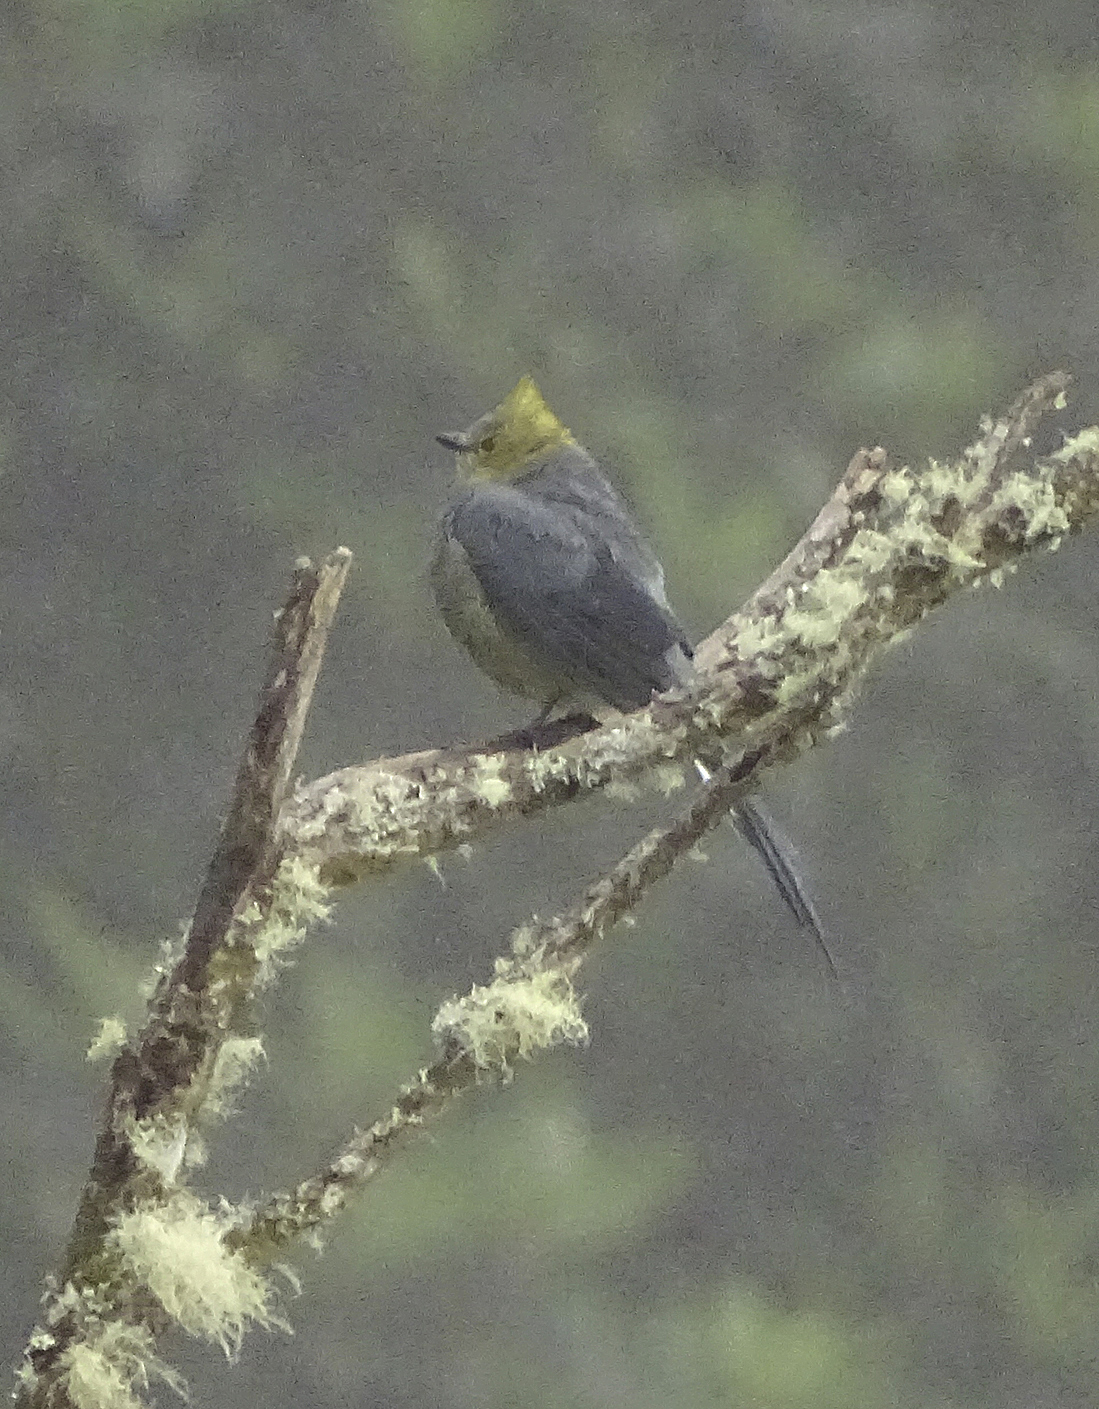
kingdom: Animalia
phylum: Chordata
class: Aves
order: Passeriformes
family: Ptilogonatidae
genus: Ptilogonys
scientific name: Ptilogonys caudatus
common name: Long-tailed silky-flycatcher
